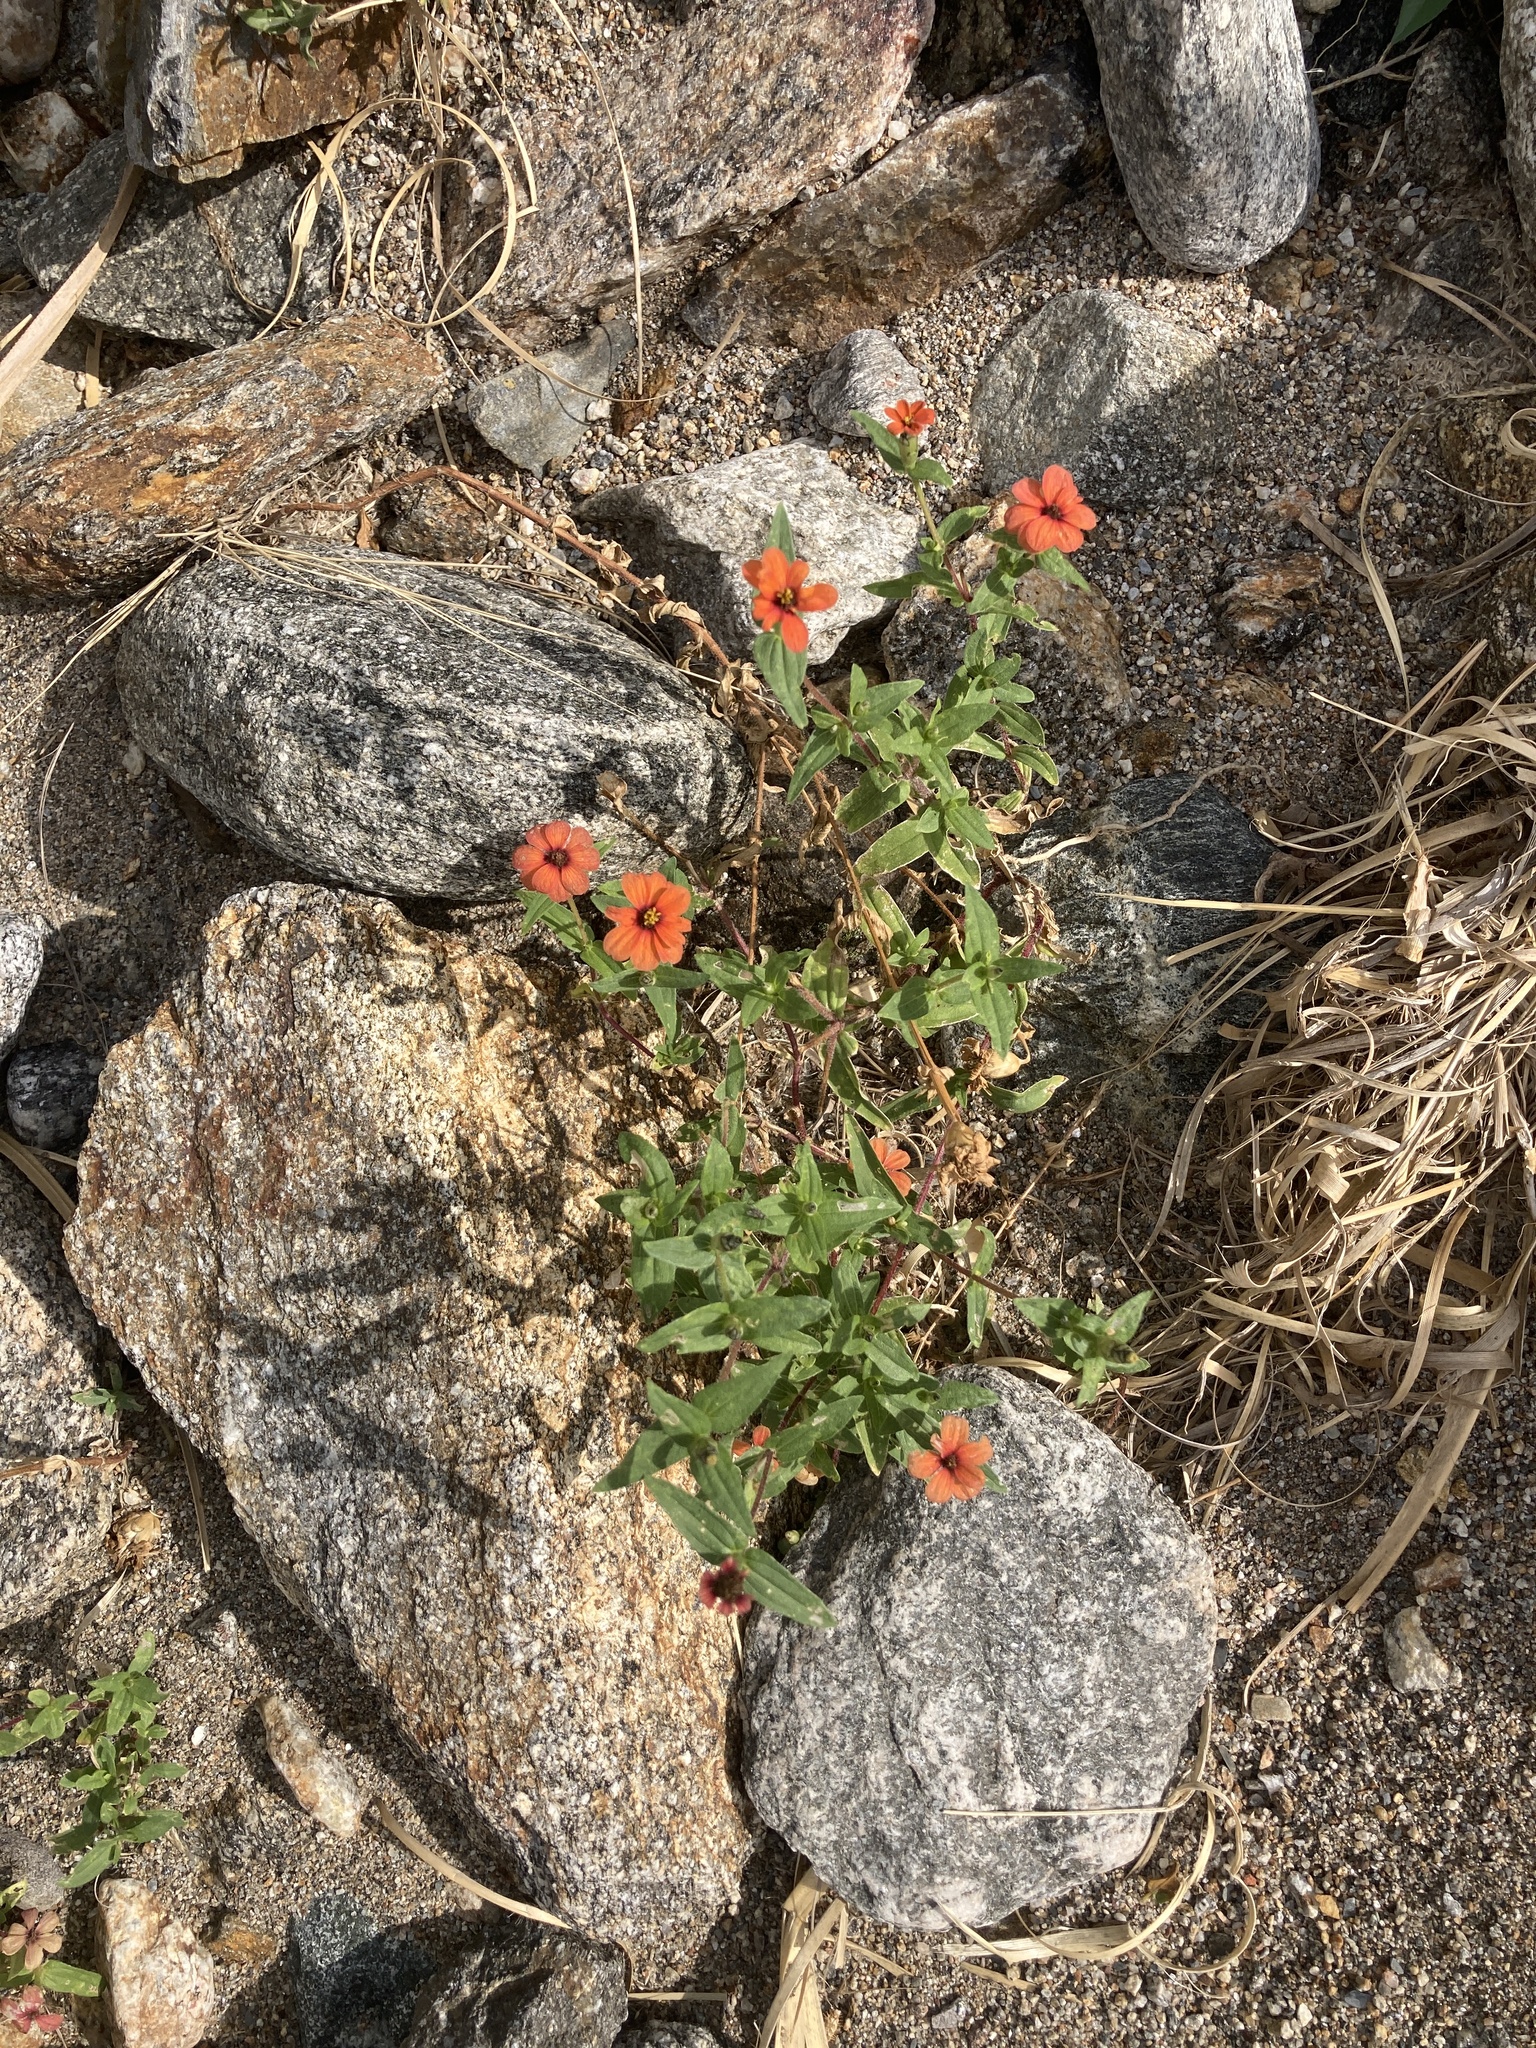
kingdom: Plantae
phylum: Tracheophyta
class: Magnoliopsida
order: Asterales
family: Asteraceae
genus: Zinnia
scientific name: Zinnia peruviana
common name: Peruvian zinnia
